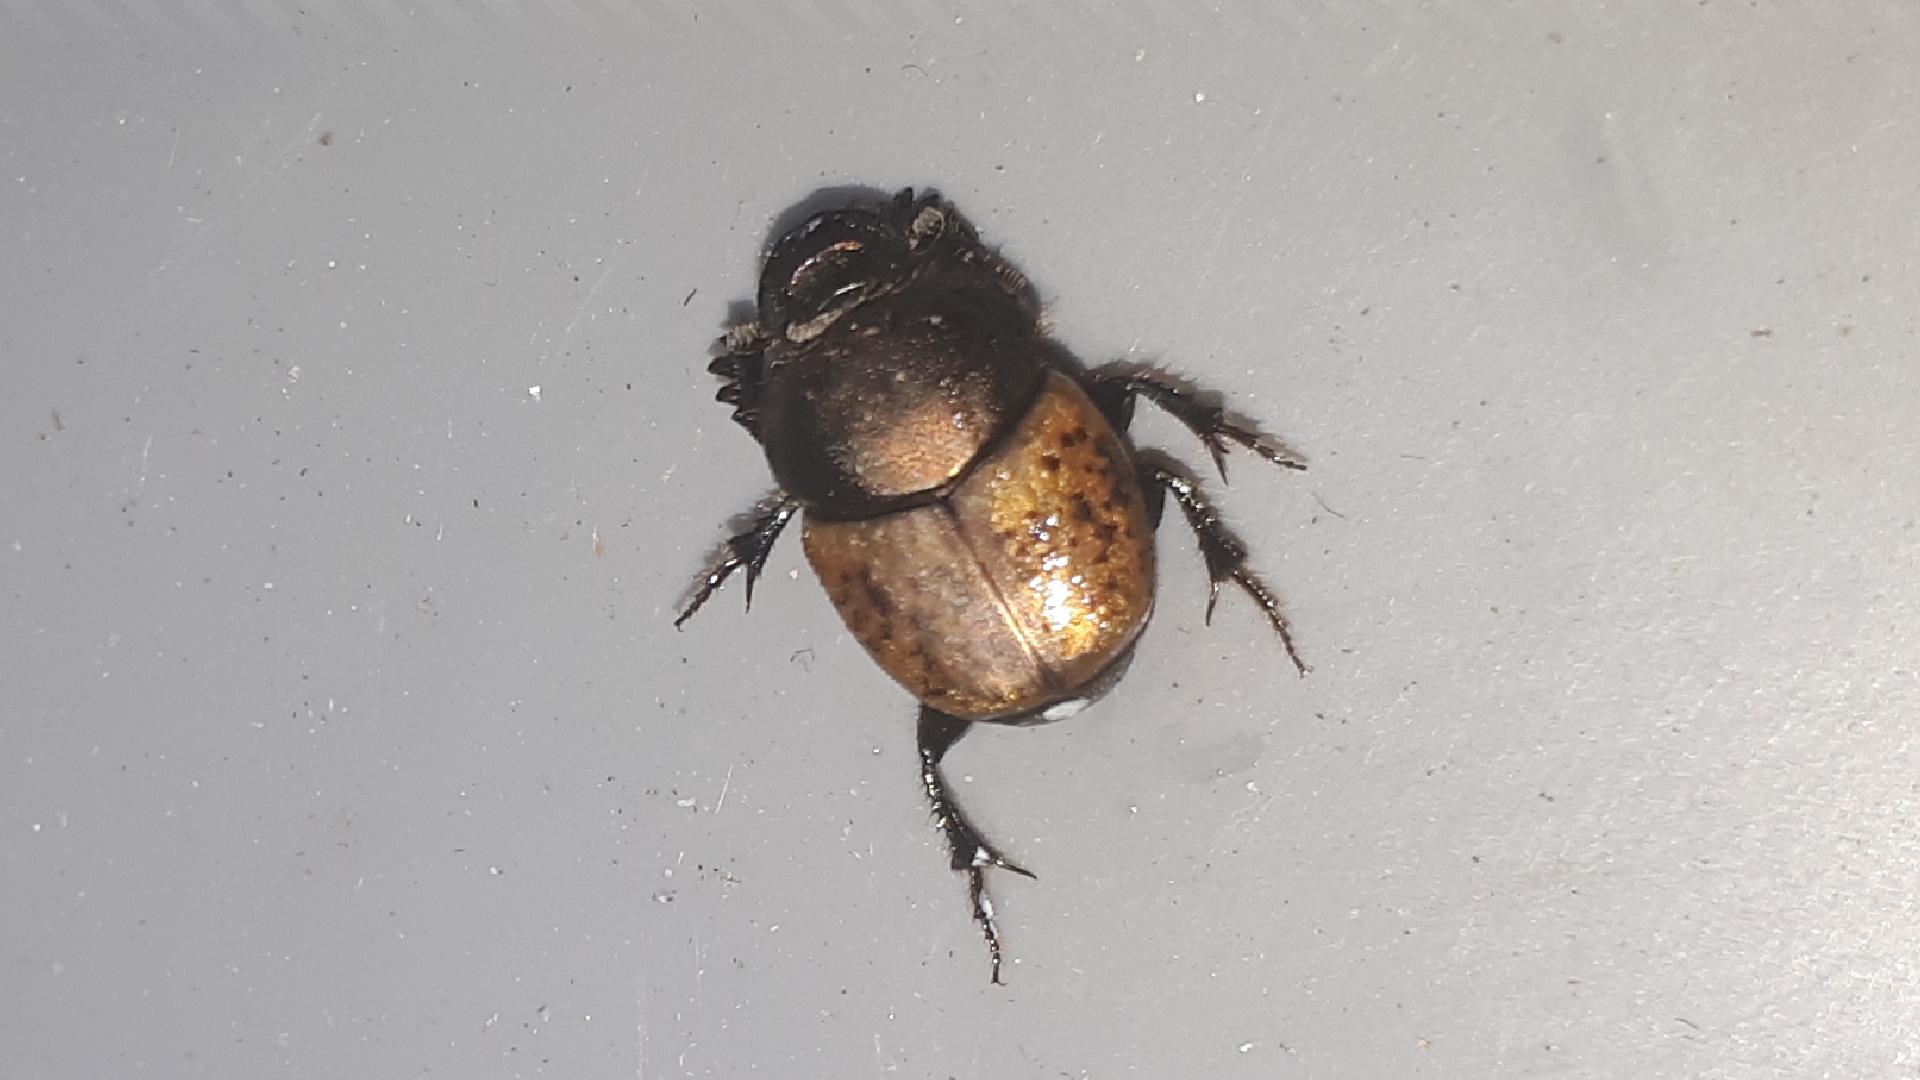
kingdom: Animalia
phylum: Arthropoda
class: Insecta
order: Coleoptera
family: Scarabaeidae
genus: Onthophagus
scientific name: Onthophagus coenobita
